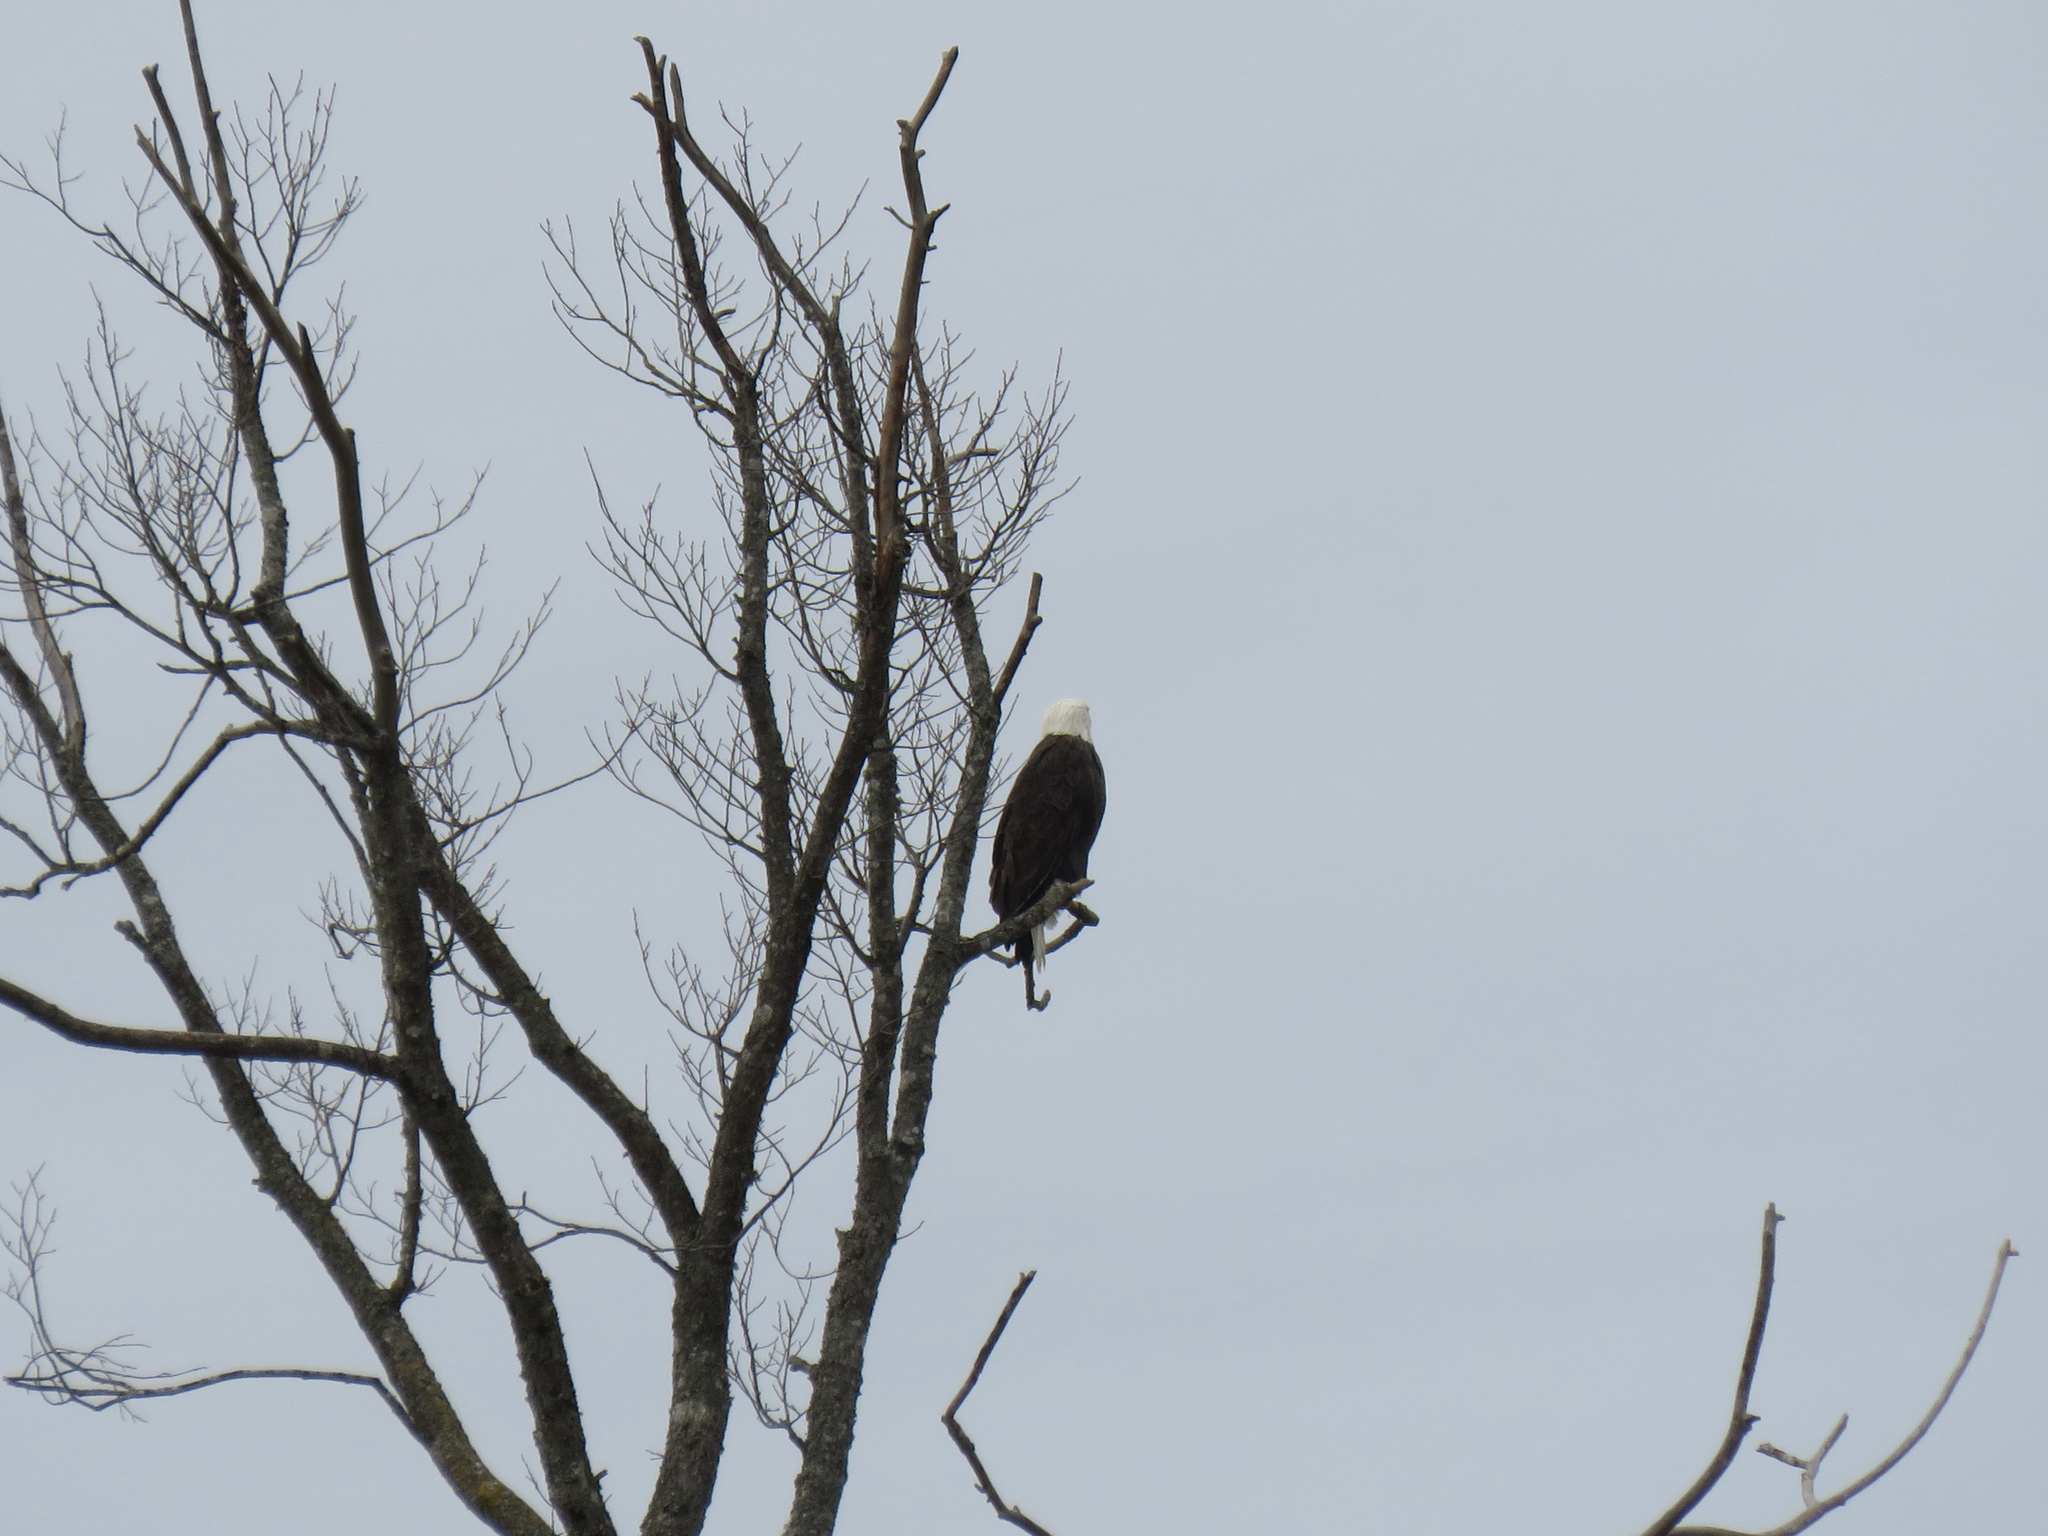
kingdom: Animalia
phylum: Chordata
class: Aves
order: Accipitriformes
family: Accipitridae
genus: Haliaeetus
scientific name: Haliaeetus leucocephalus
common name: Bald eagle
